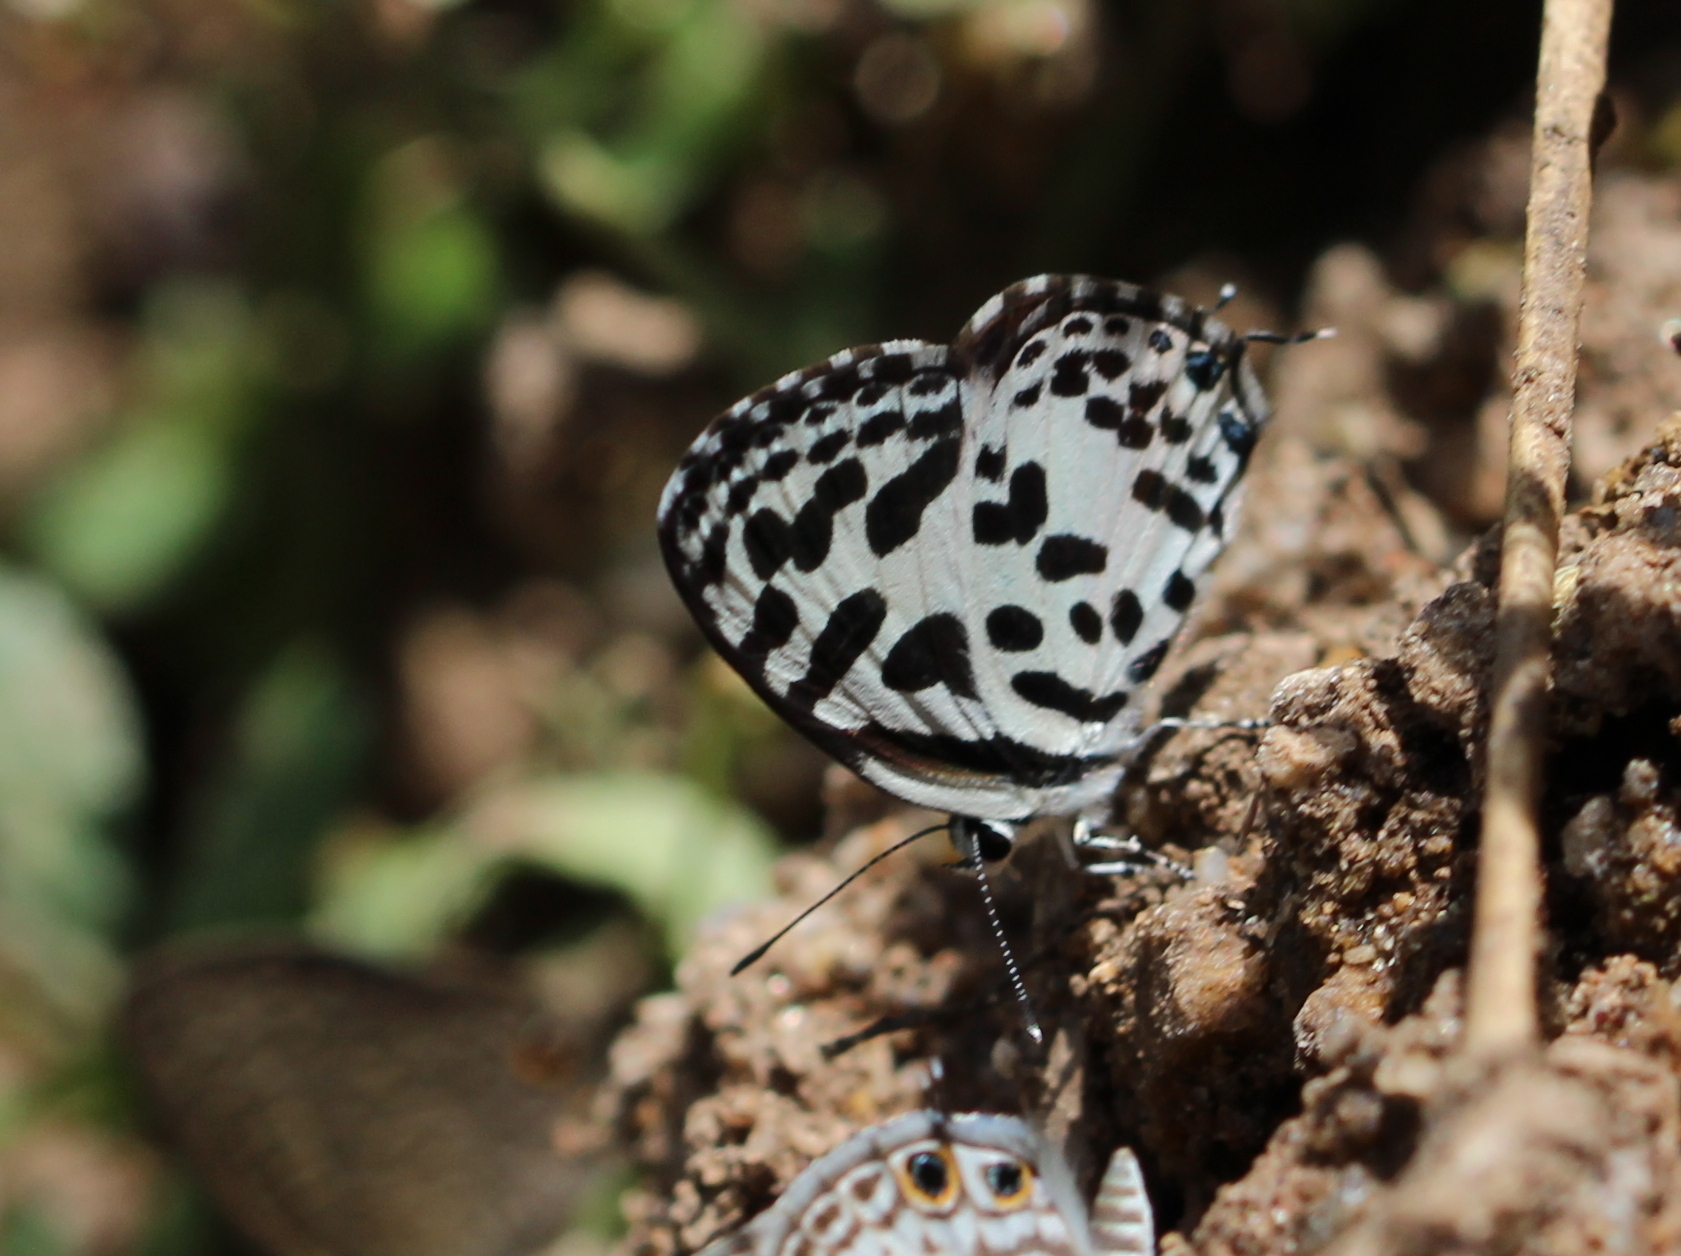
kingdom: Animalia
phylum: Arthropoda
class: Insecta
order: Lepidoptera
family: Lycaenidae
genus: Castalius
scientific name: Castalius rosimon
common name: Common pierrot
